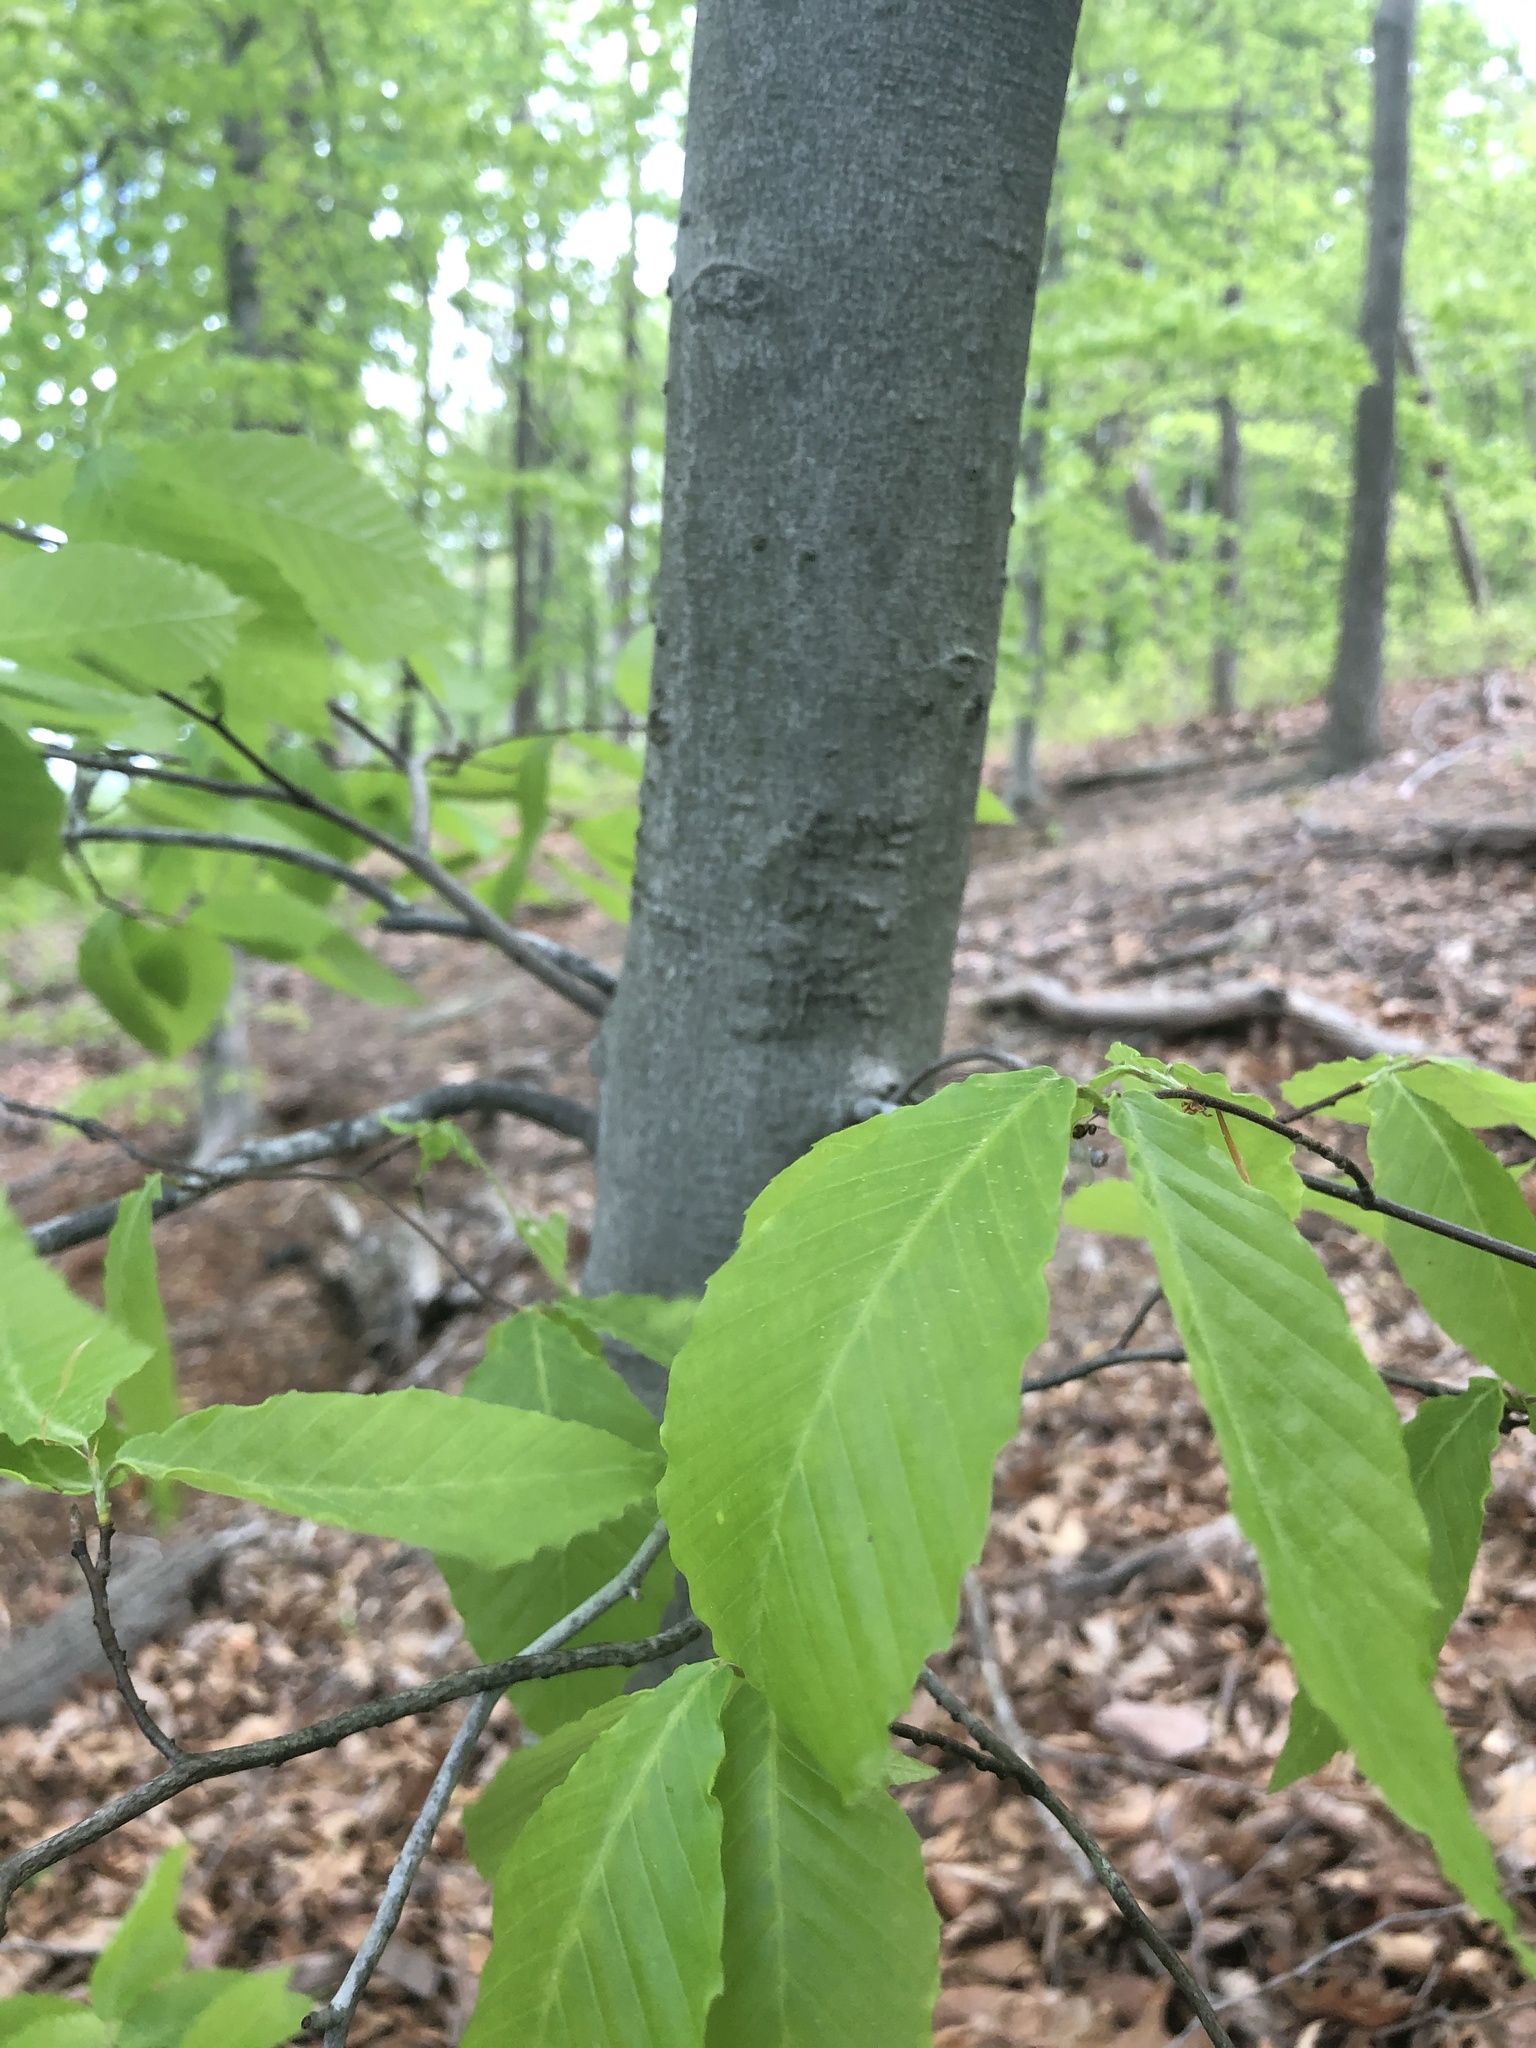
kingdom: Plantae
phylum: Tracheophyta
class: Magnoliopsida
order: Fagales
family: Fagaceae
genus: Fagus
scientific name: Fagus grandifolia
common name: American beech
